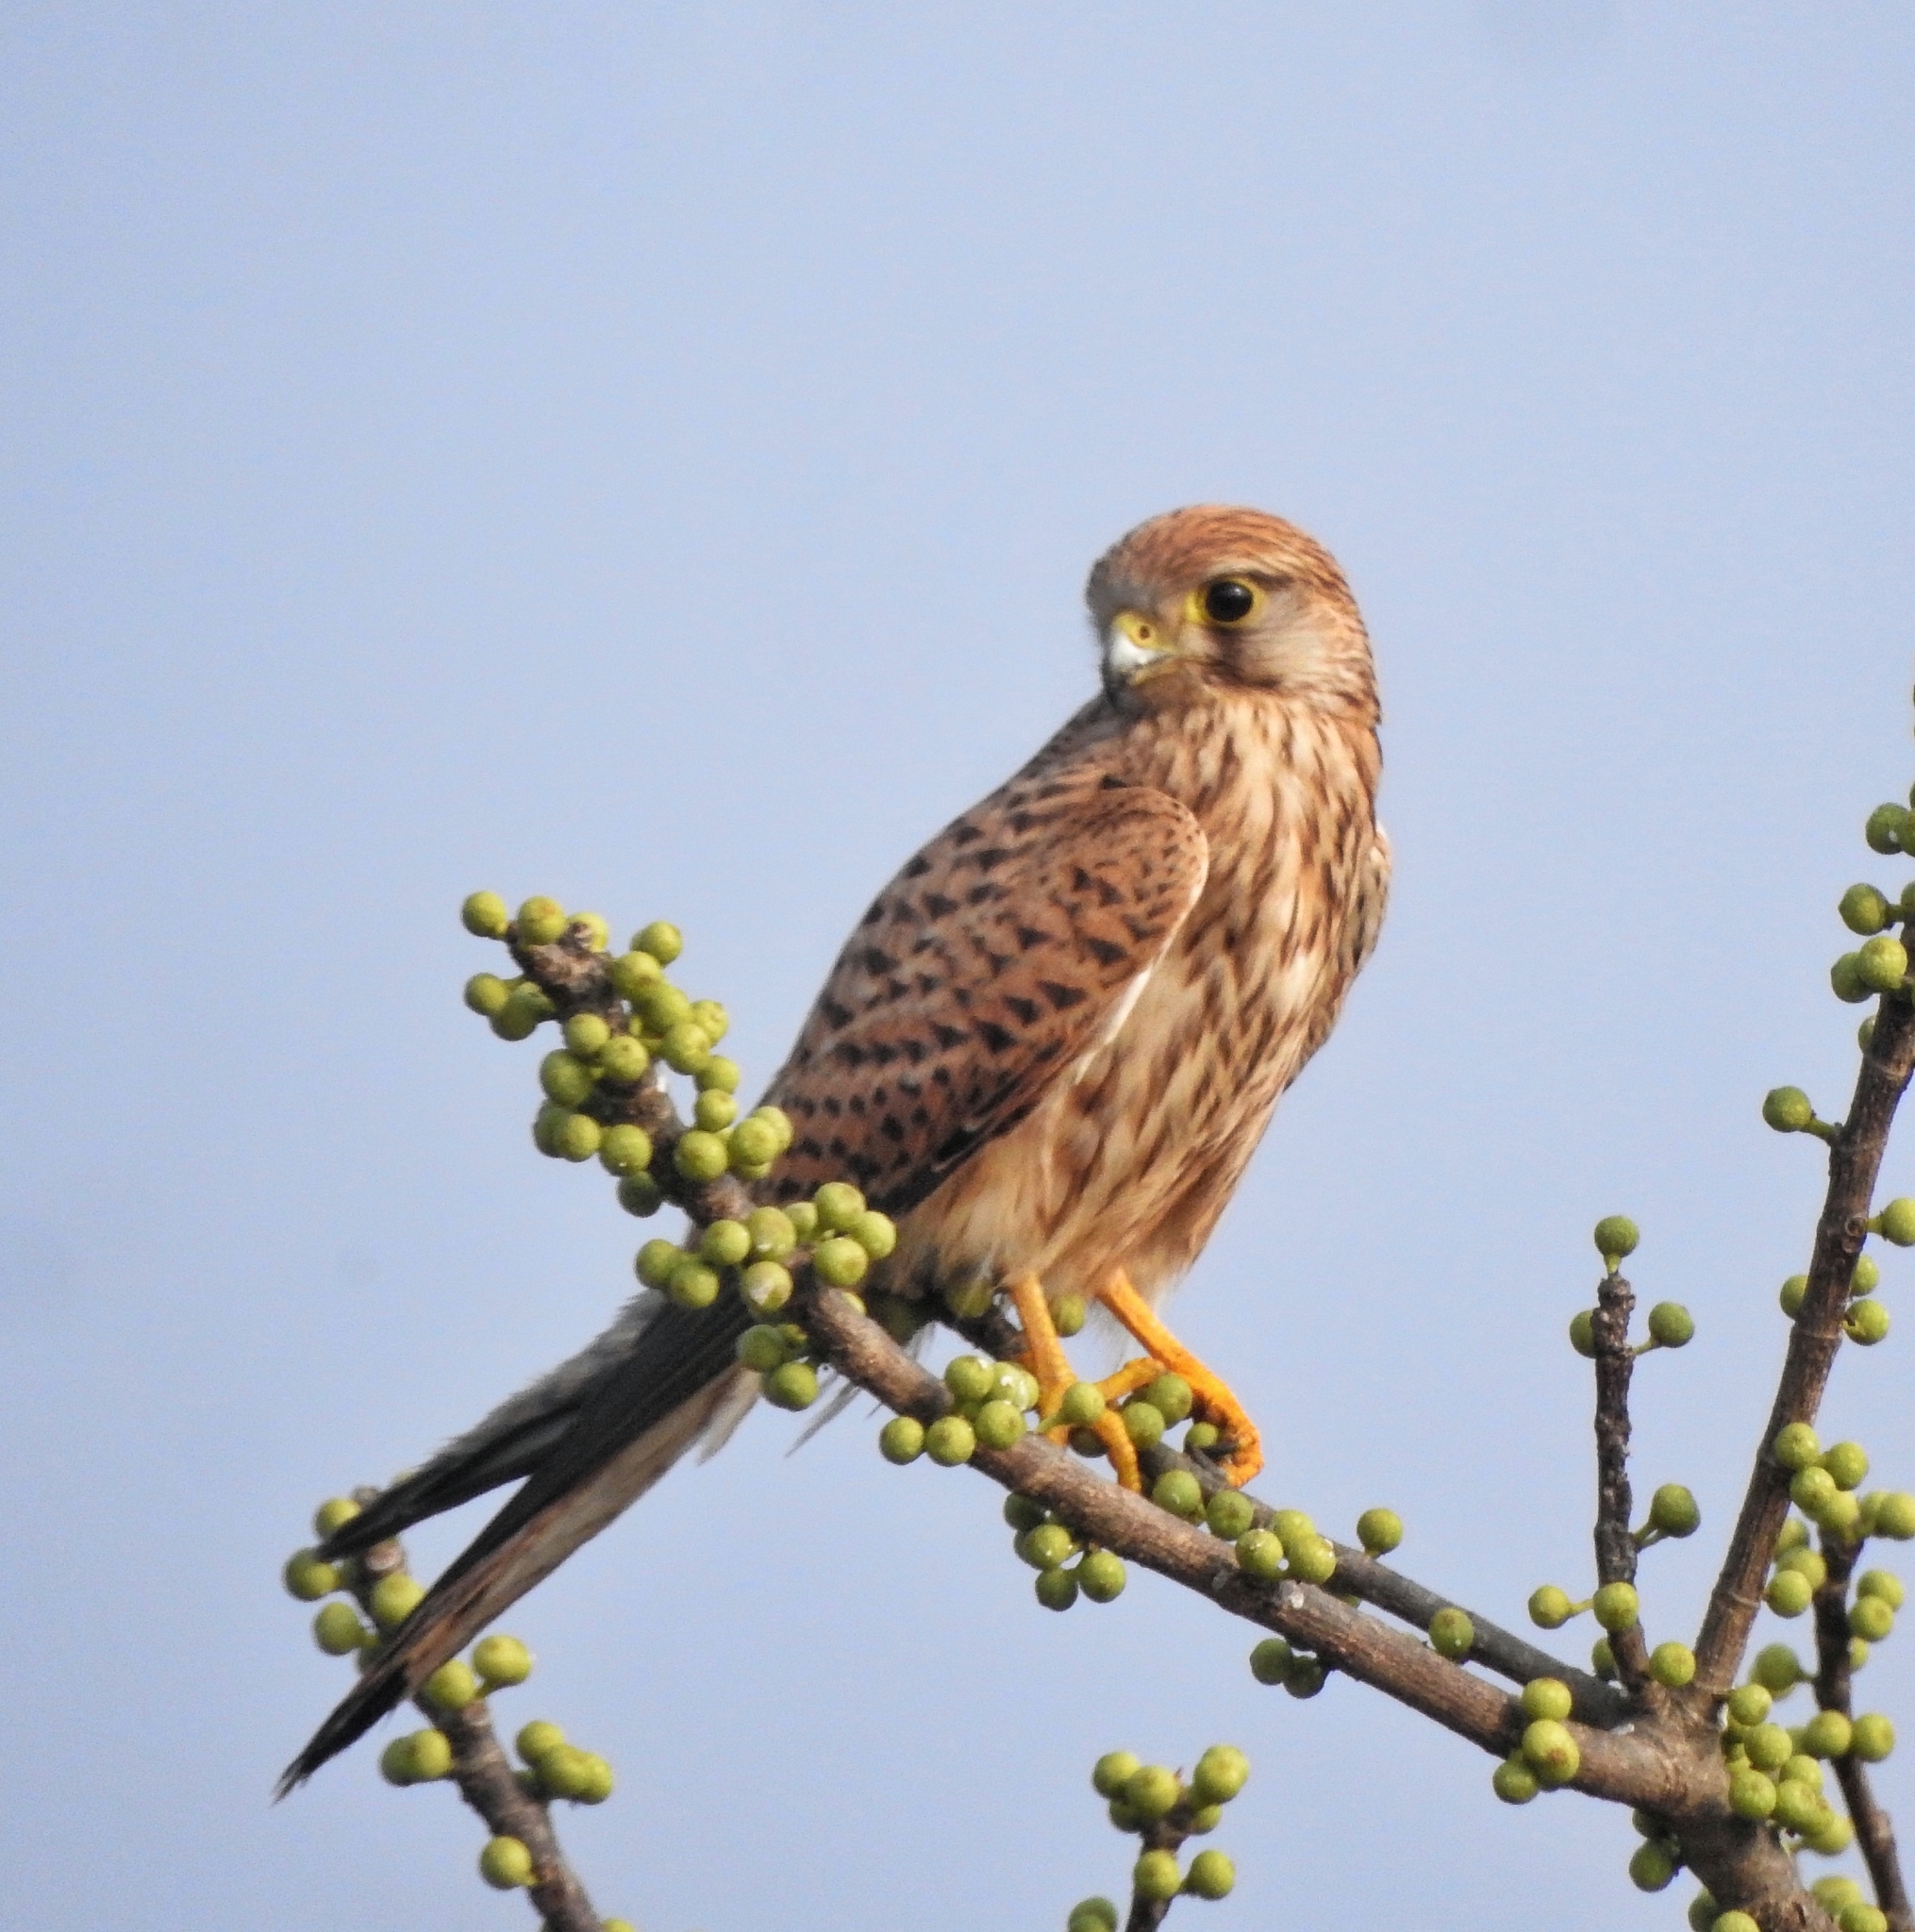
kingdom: Animalia
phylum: Chordata
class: Aves
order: Falconiformes
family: Falconidae
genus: Falco
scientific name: Falco tinnunculus
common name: Common kestrel
